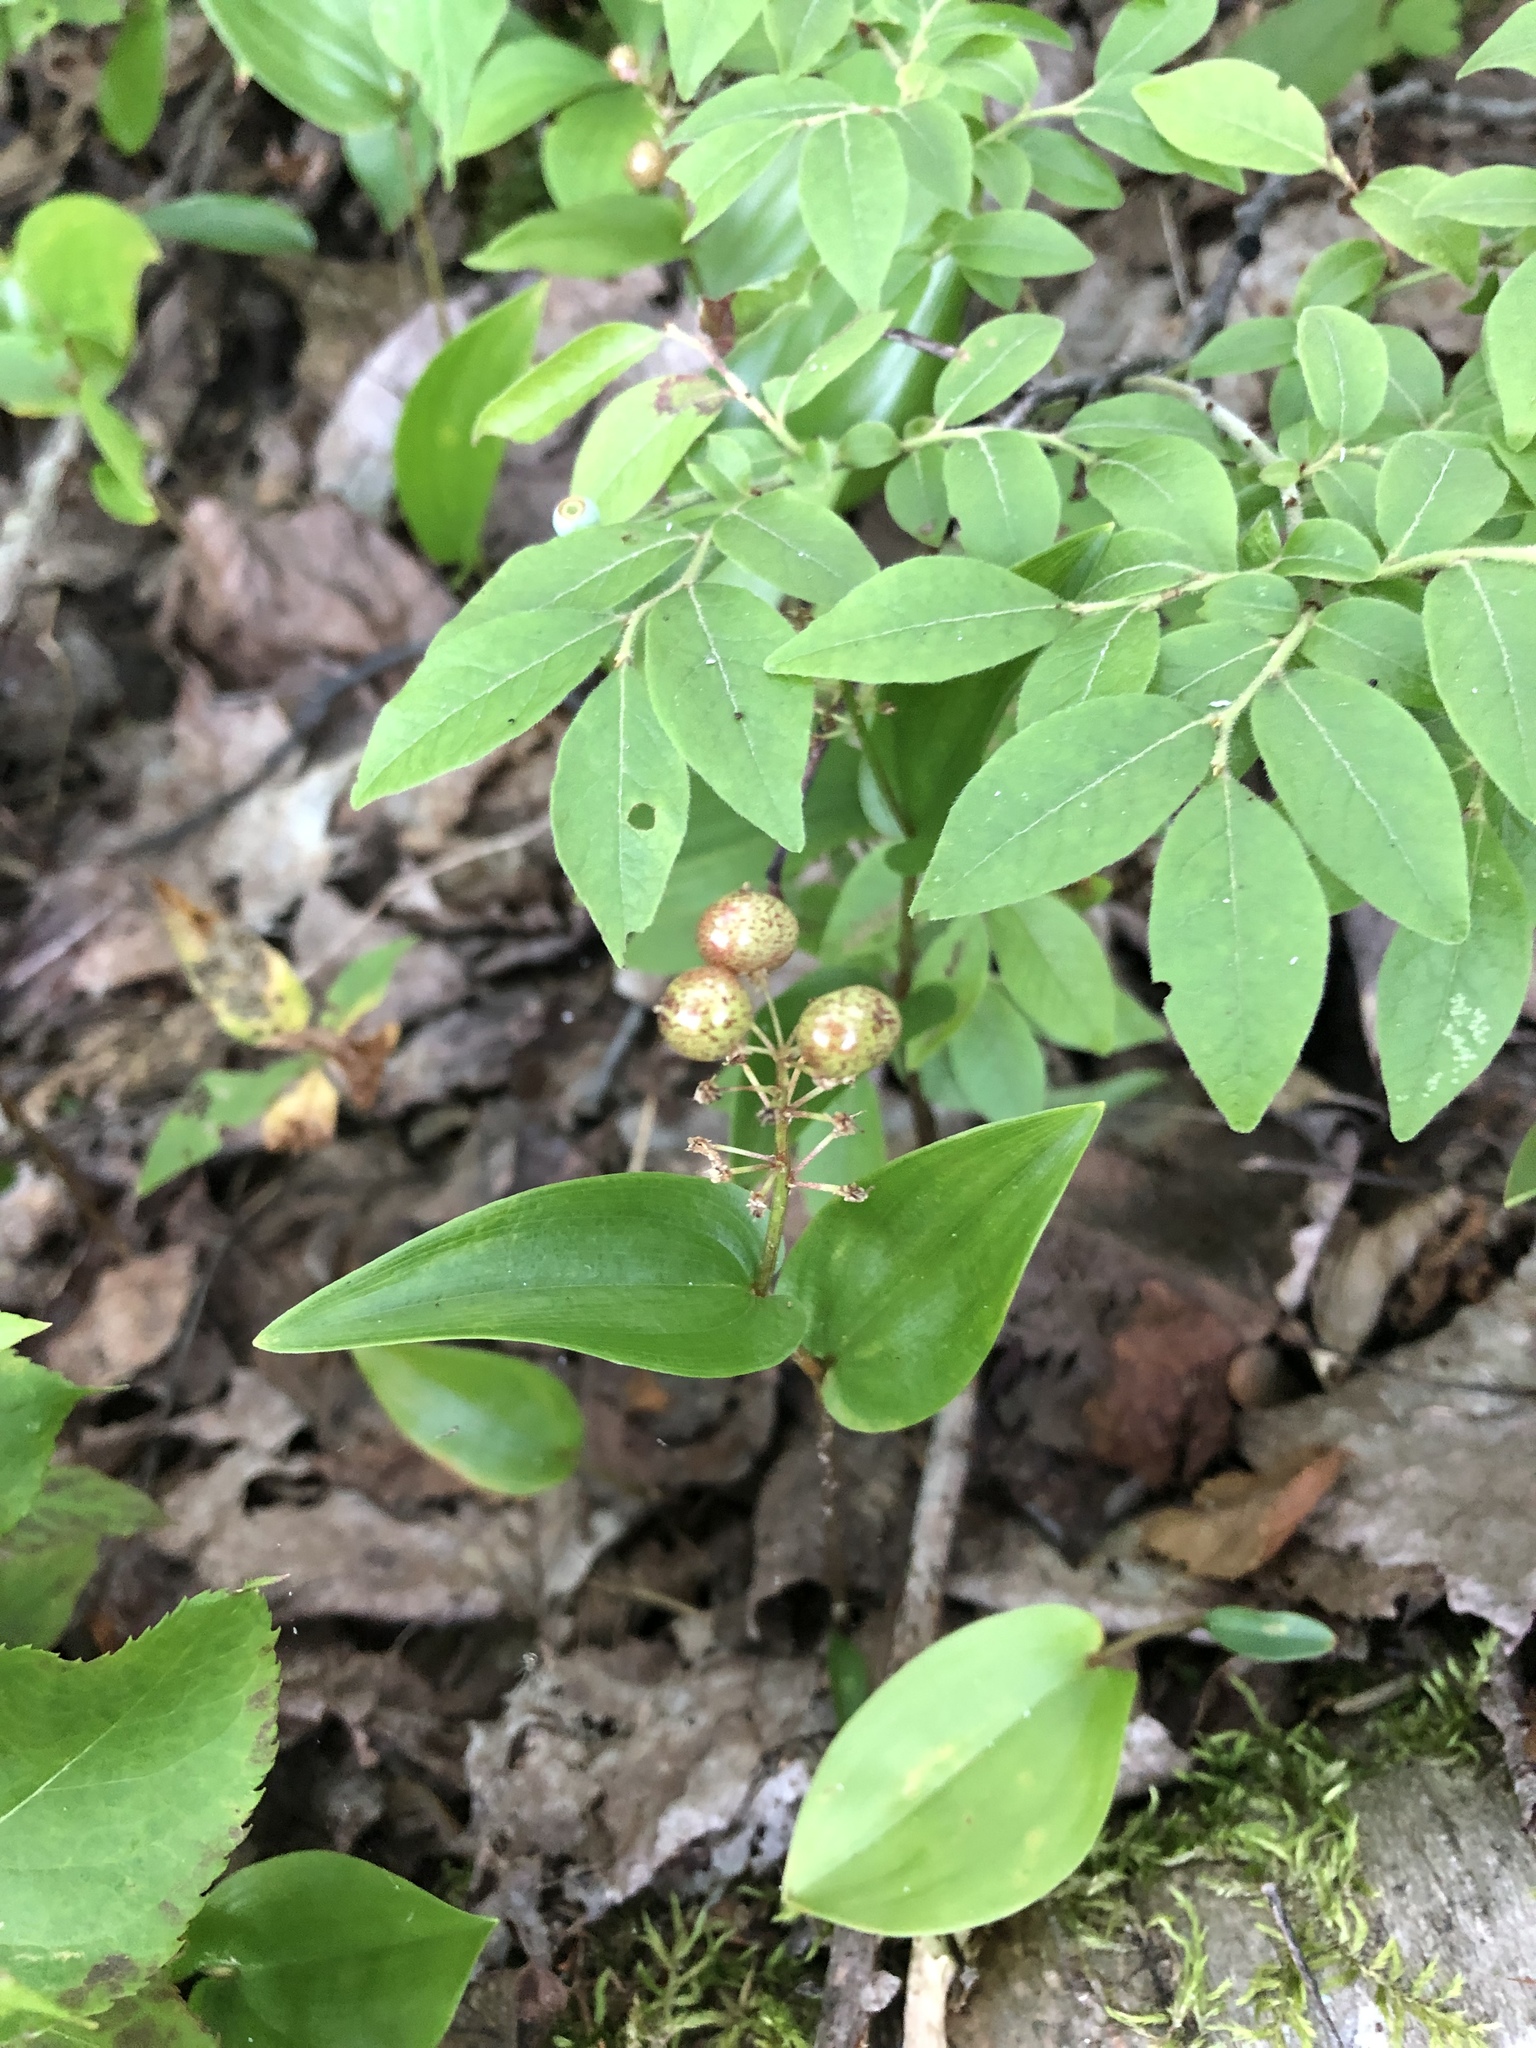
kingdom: Plantae
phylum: Tracheophyta
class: Liliopsida
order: Asparagales
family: Asparagaceae
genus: Maianthemum
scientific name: Maianthemum canadense
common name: False lily-of-the-valley
